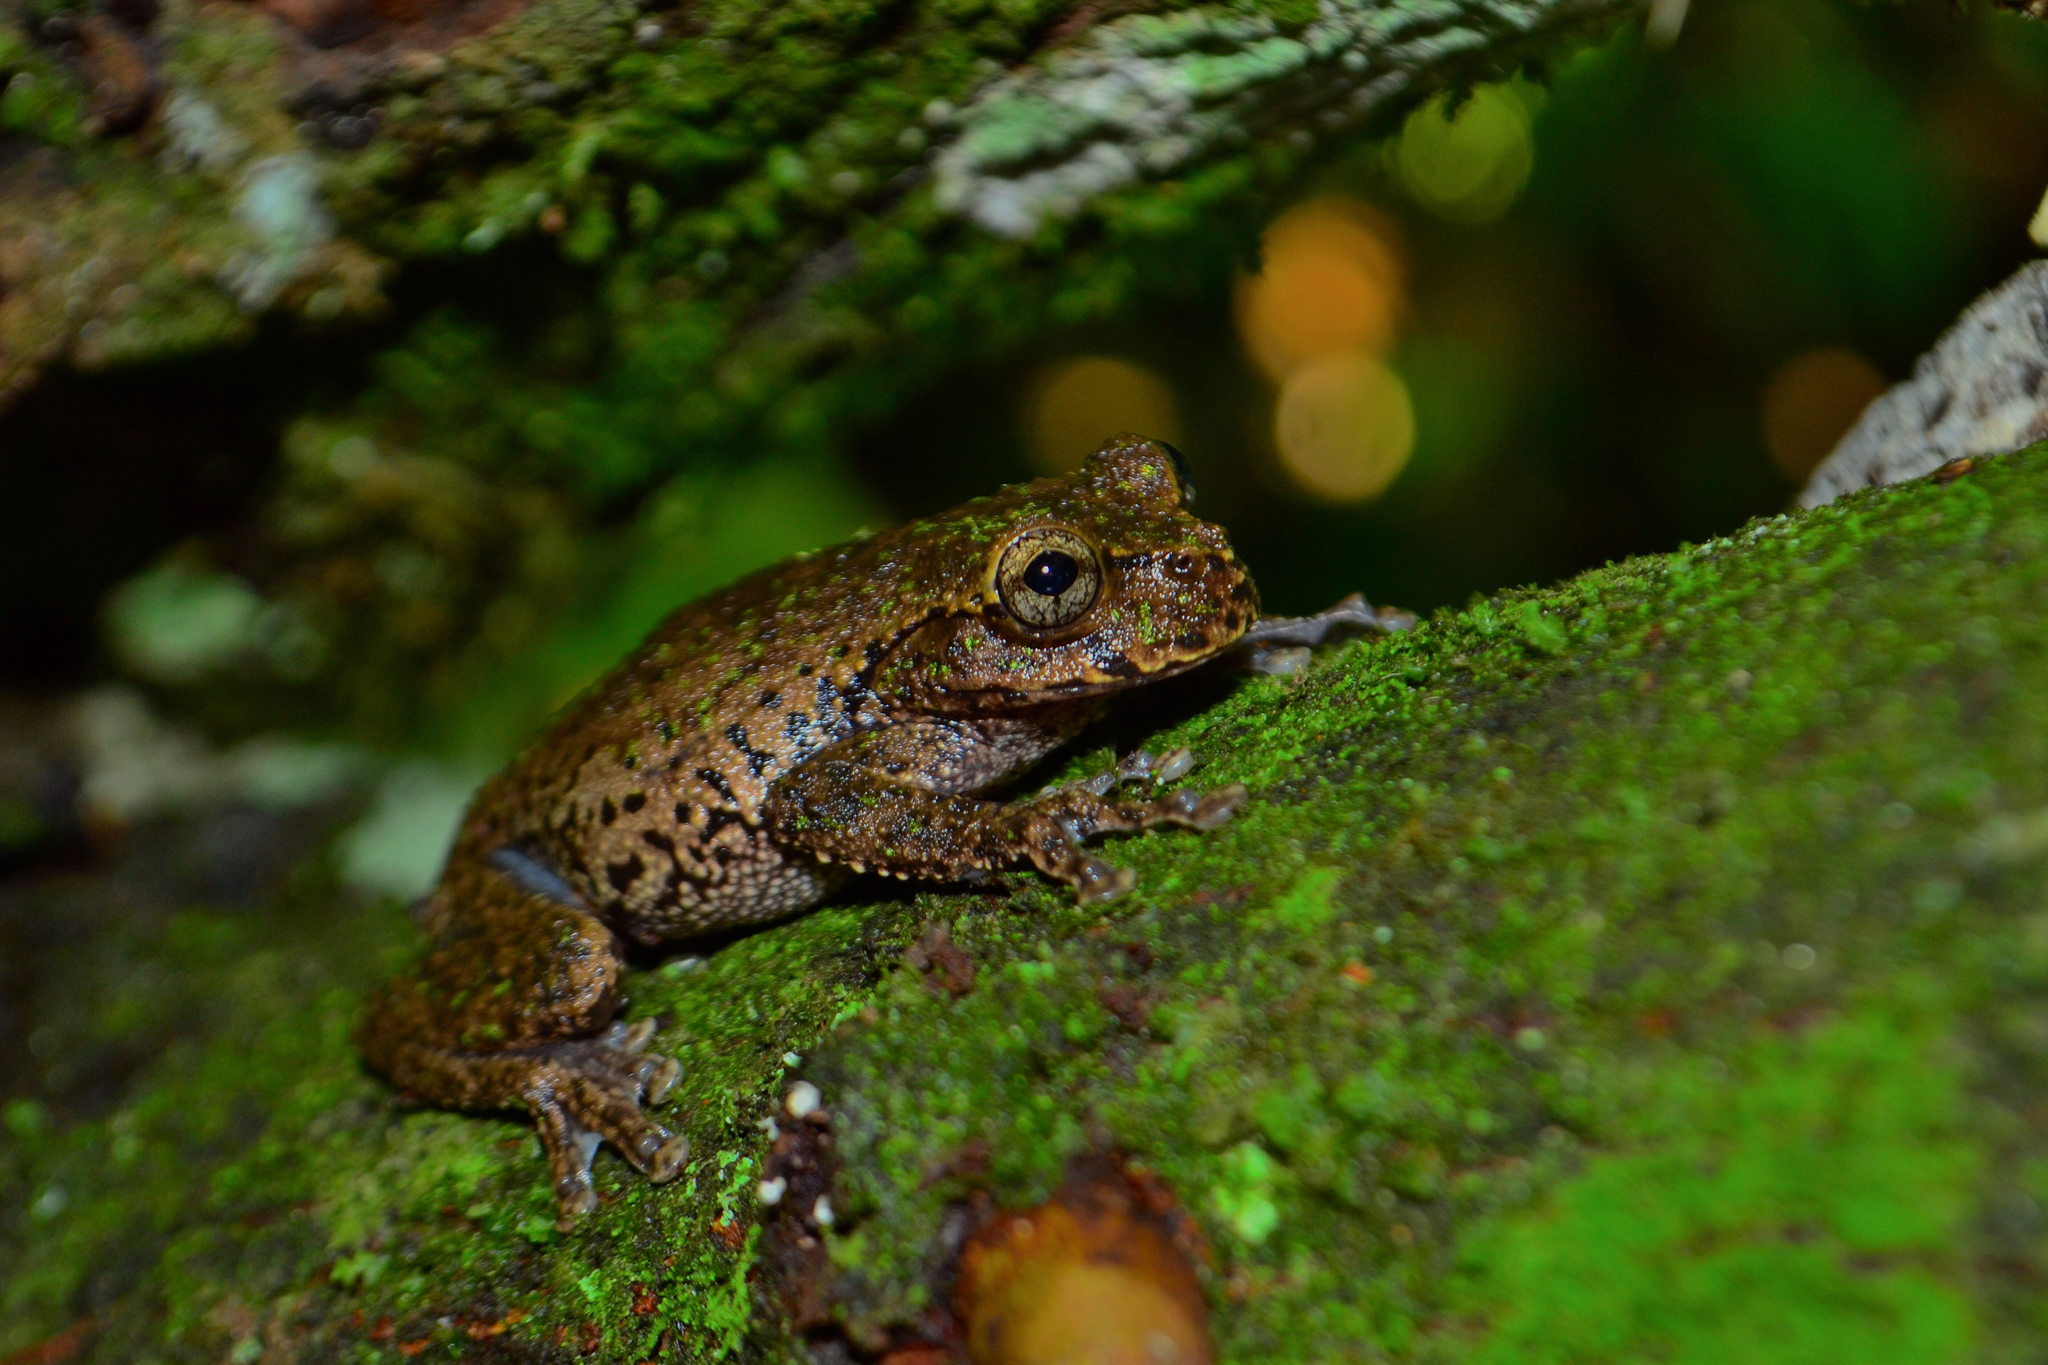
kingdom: Animalia
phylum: Chordata
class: Amphibia
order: Anura
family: Hylidae
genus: Plectrohyla
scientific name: Plectrohyla matudai
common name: Matuda's spikethumb frog
